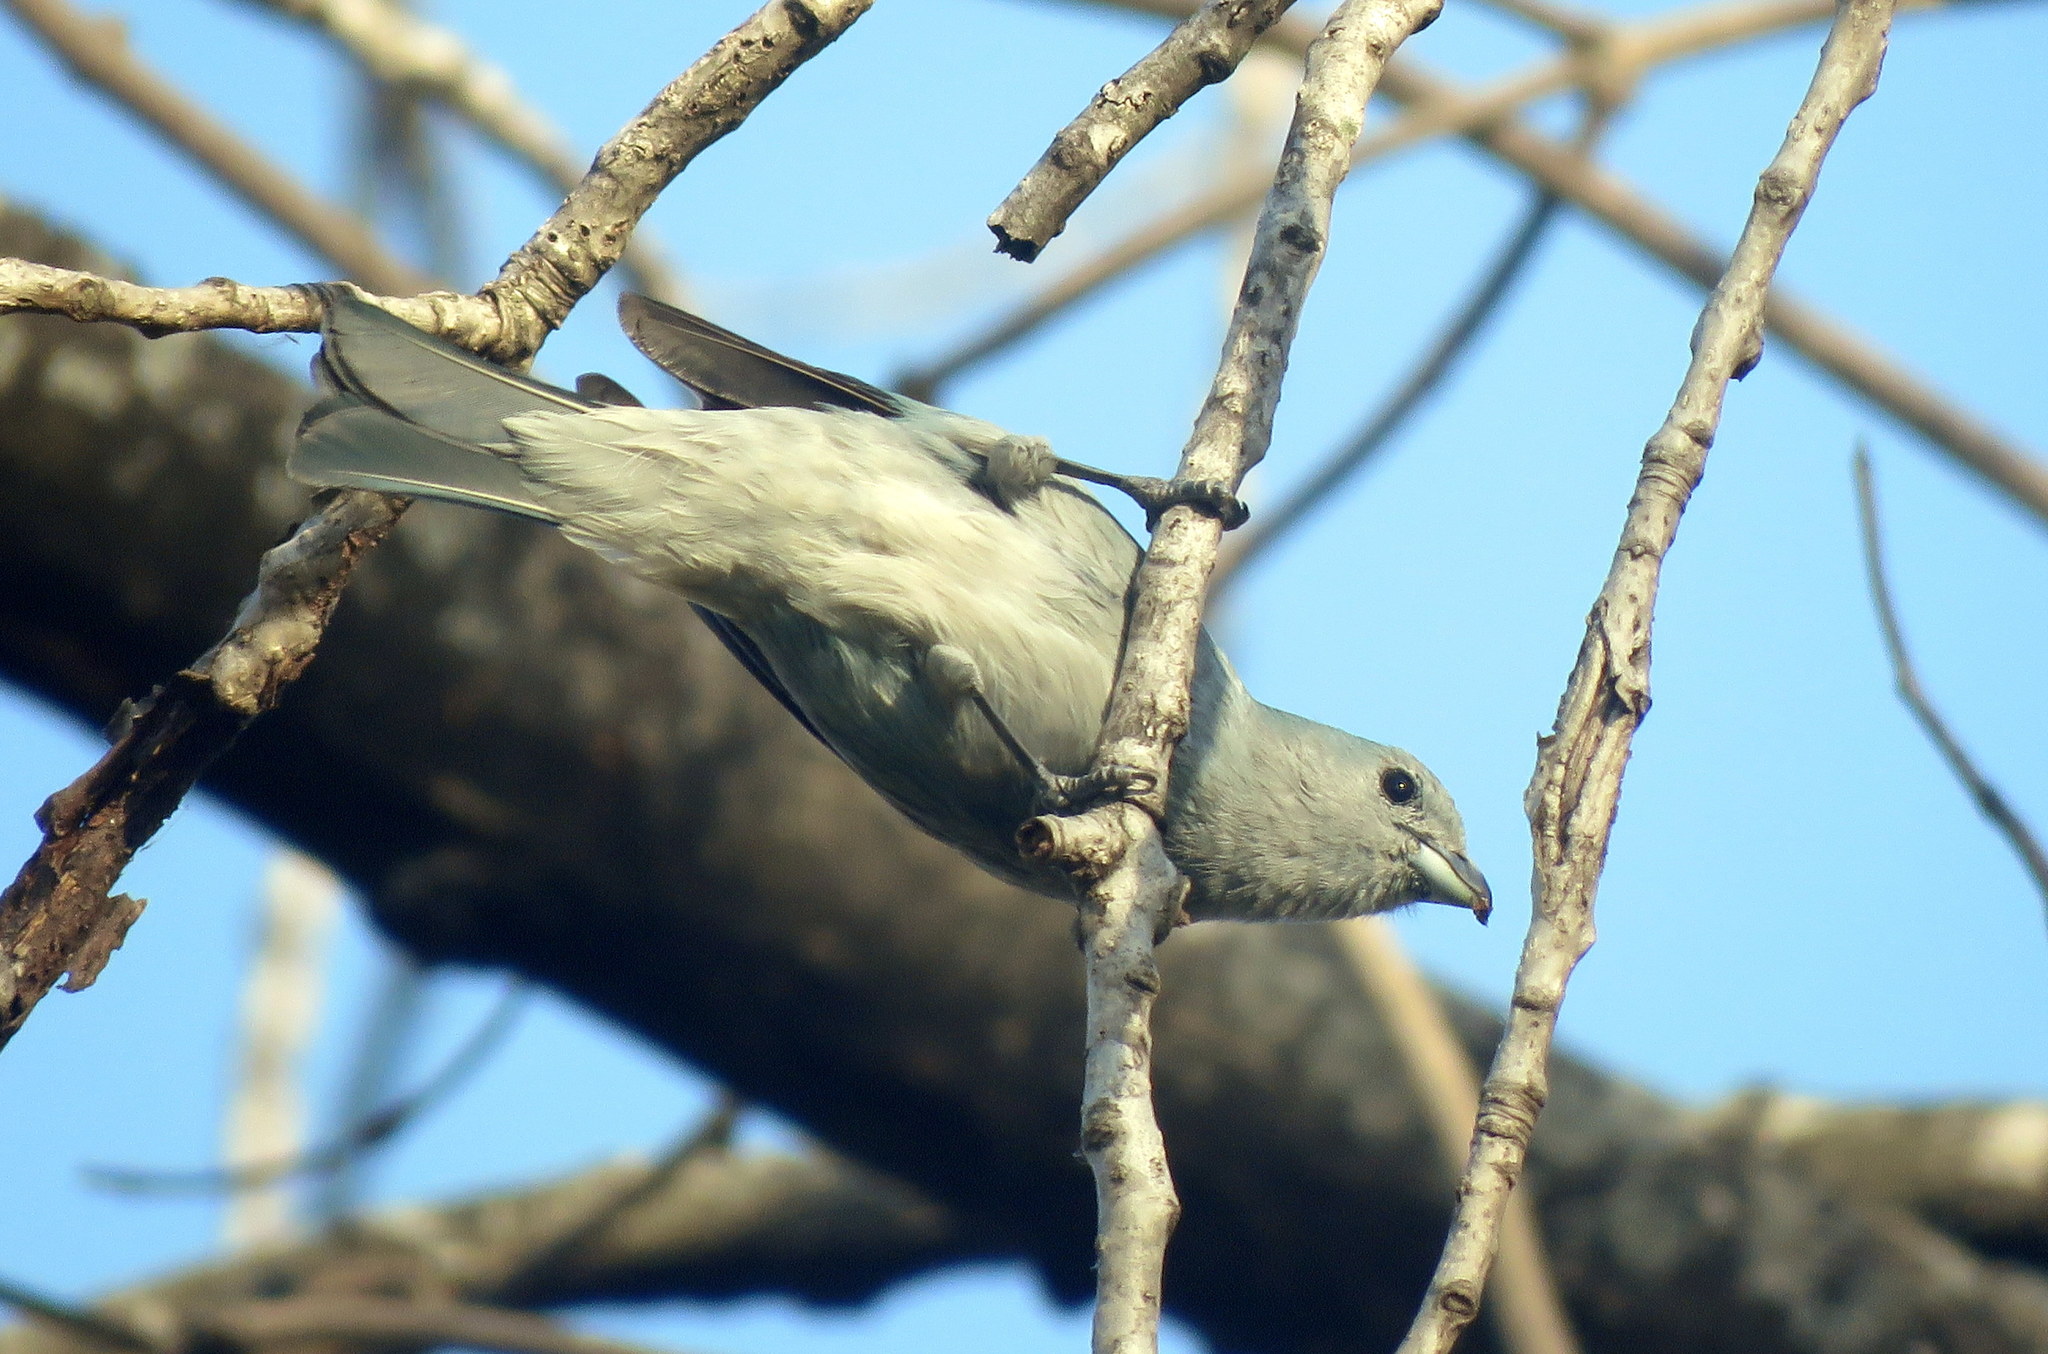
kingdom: Animalia
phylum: Chordata
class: Aves
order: Passeriformes
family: Thraupidae
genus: Thraupis
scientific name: Thraupis sayaca
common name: Sayaca tanager
